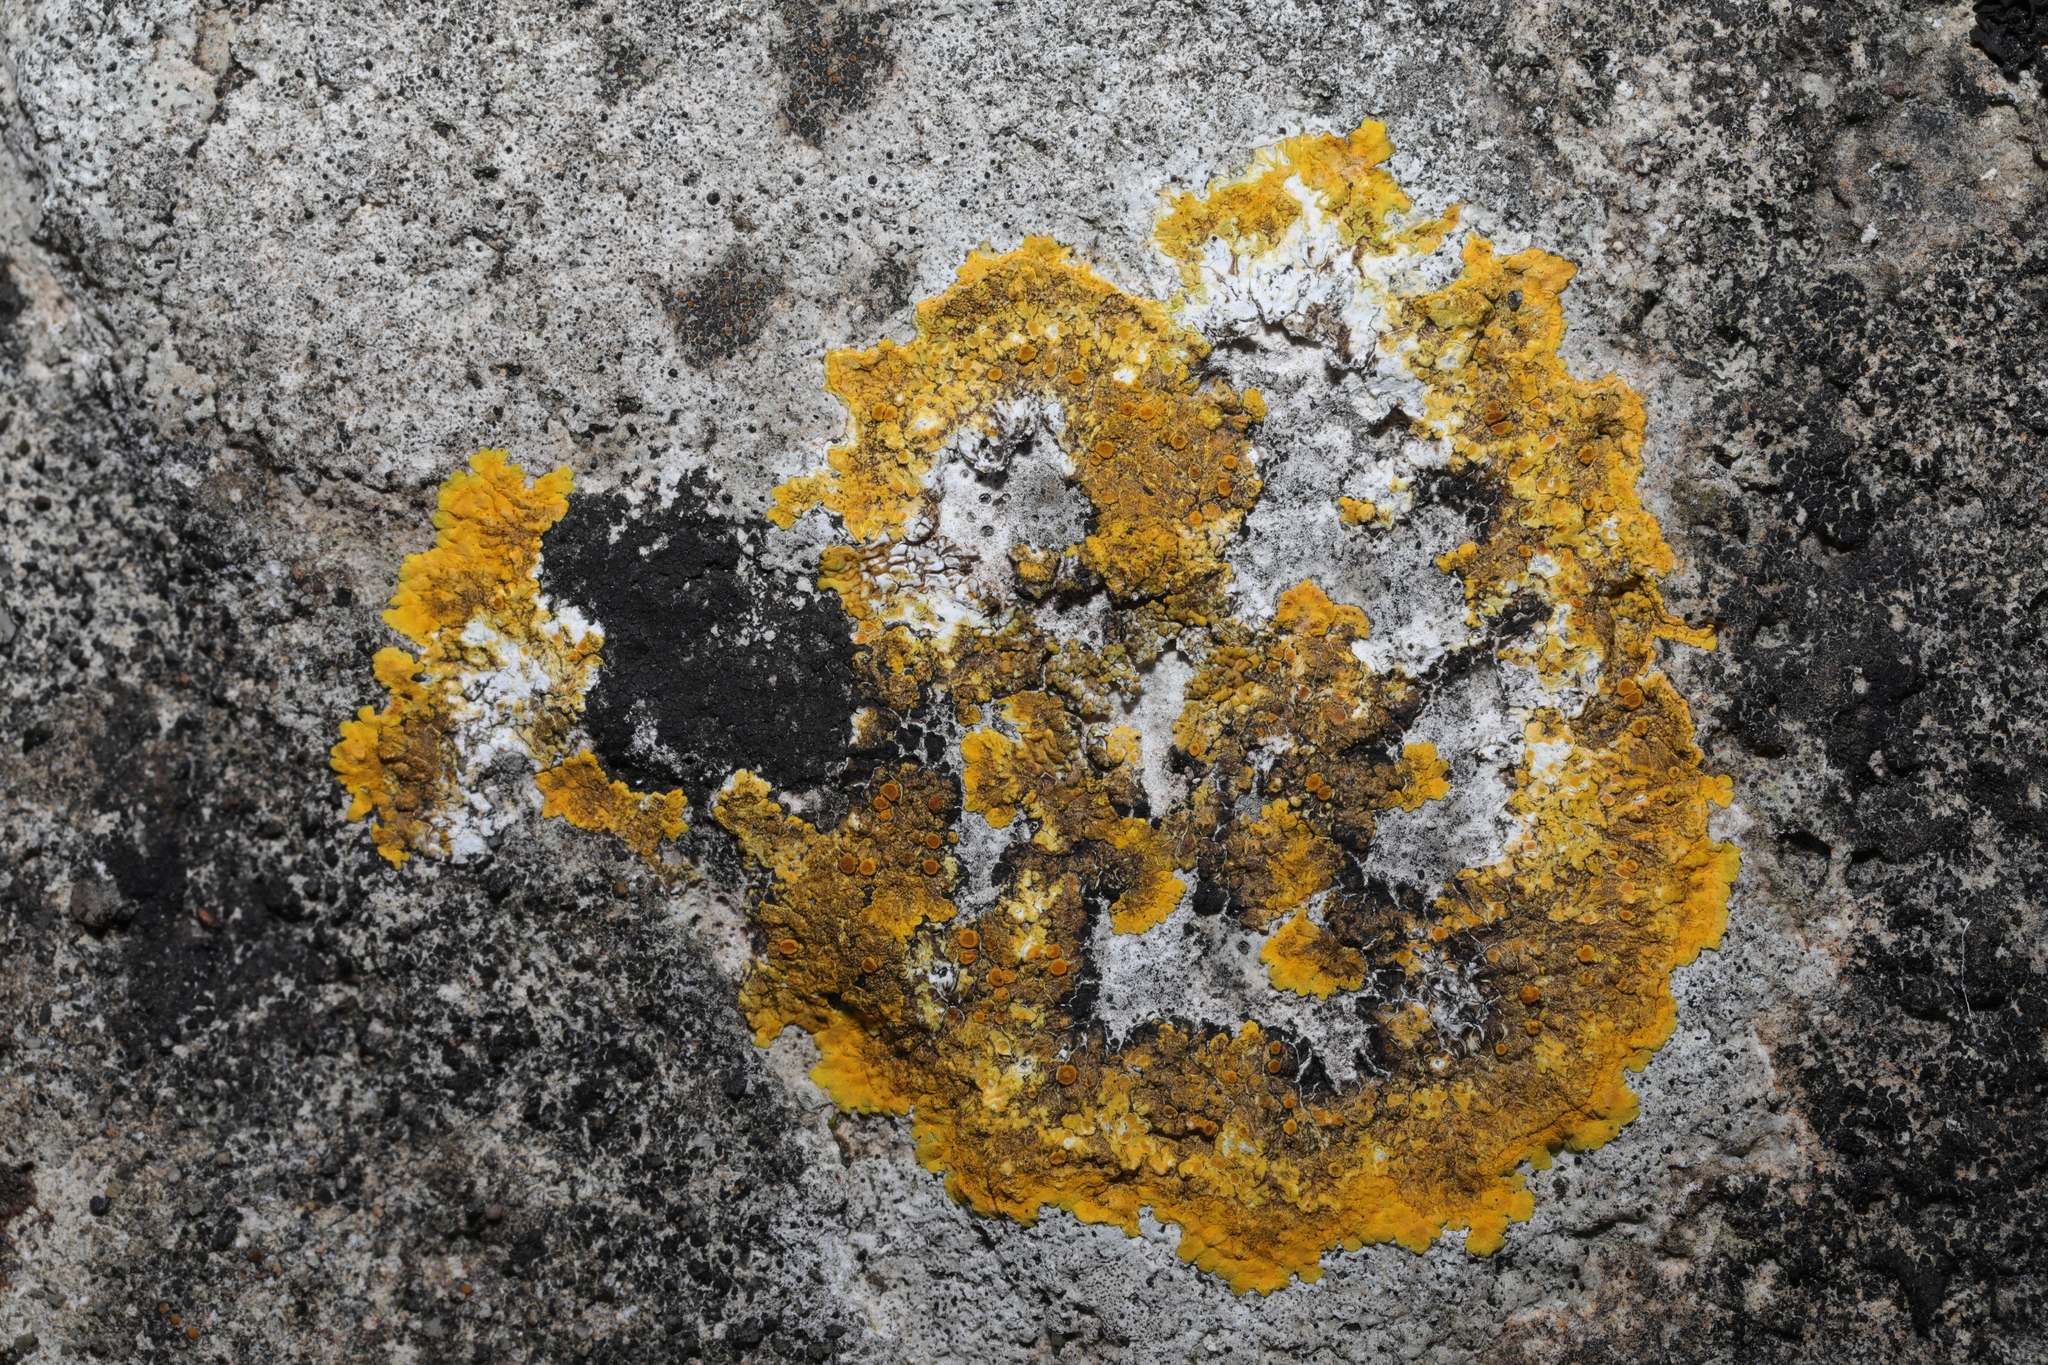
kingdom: Fungi
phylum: Ascomycota
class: Lecanoromycetes
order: Teloschistales
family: Teloschistaceae
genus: Variospora
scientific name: Variospora aurantia
